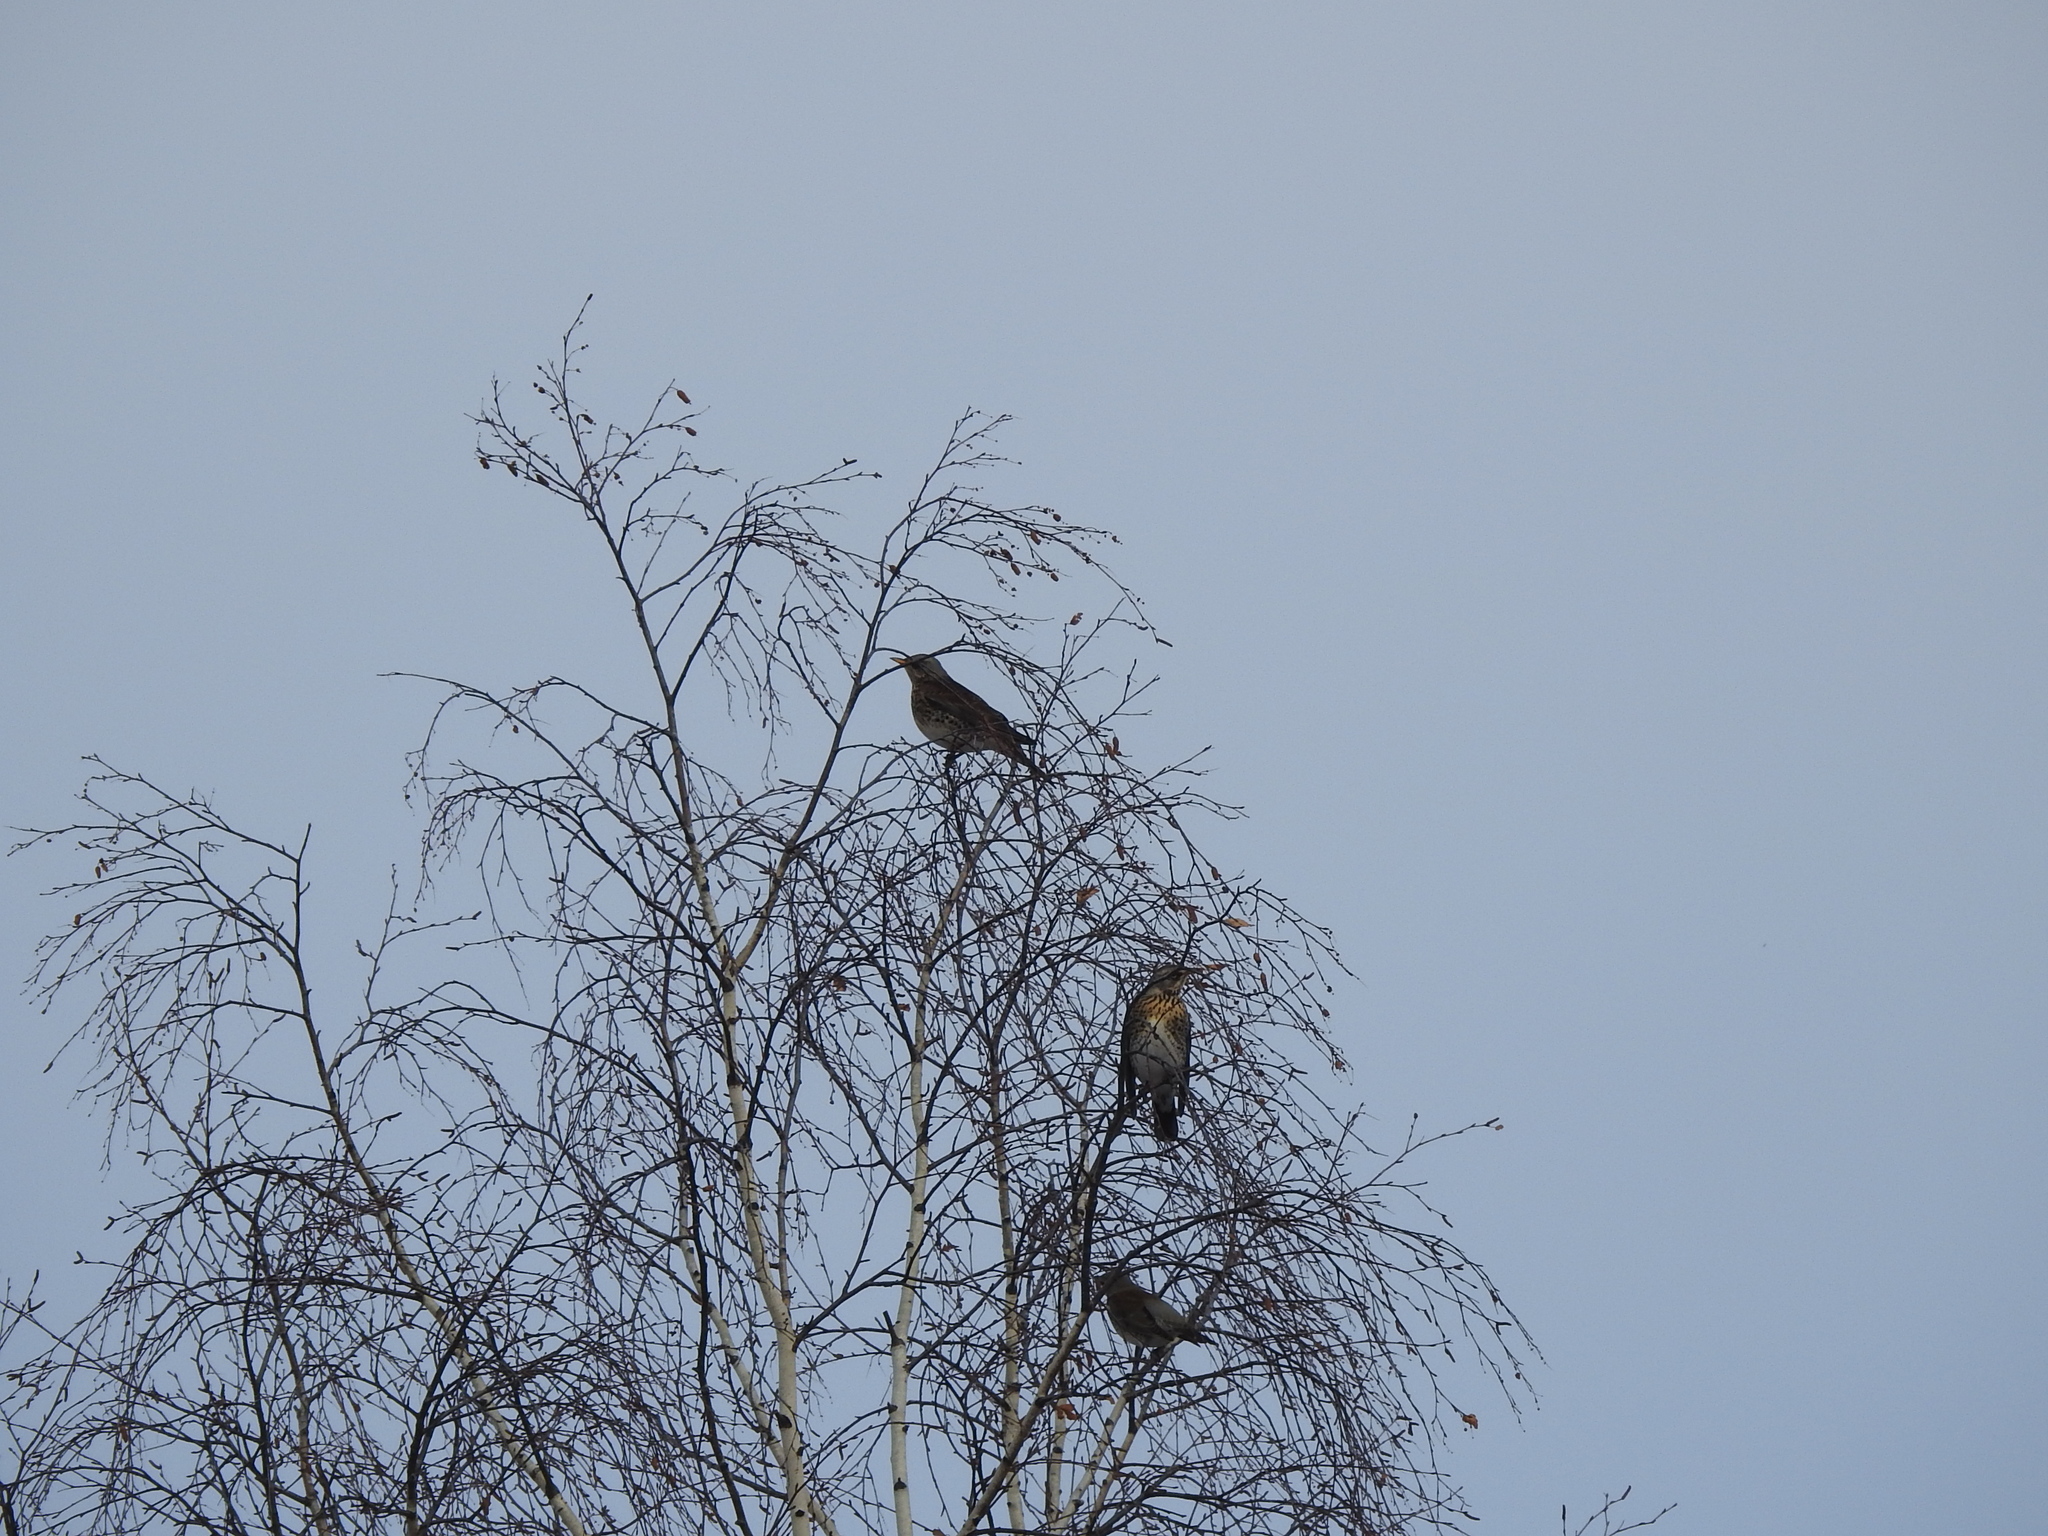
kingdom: Animalia
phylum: Chordata
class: Aves
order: Passeriformes
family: Turdidae
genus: Turdus
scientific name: Turdus pilaris
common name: Fieldfare
